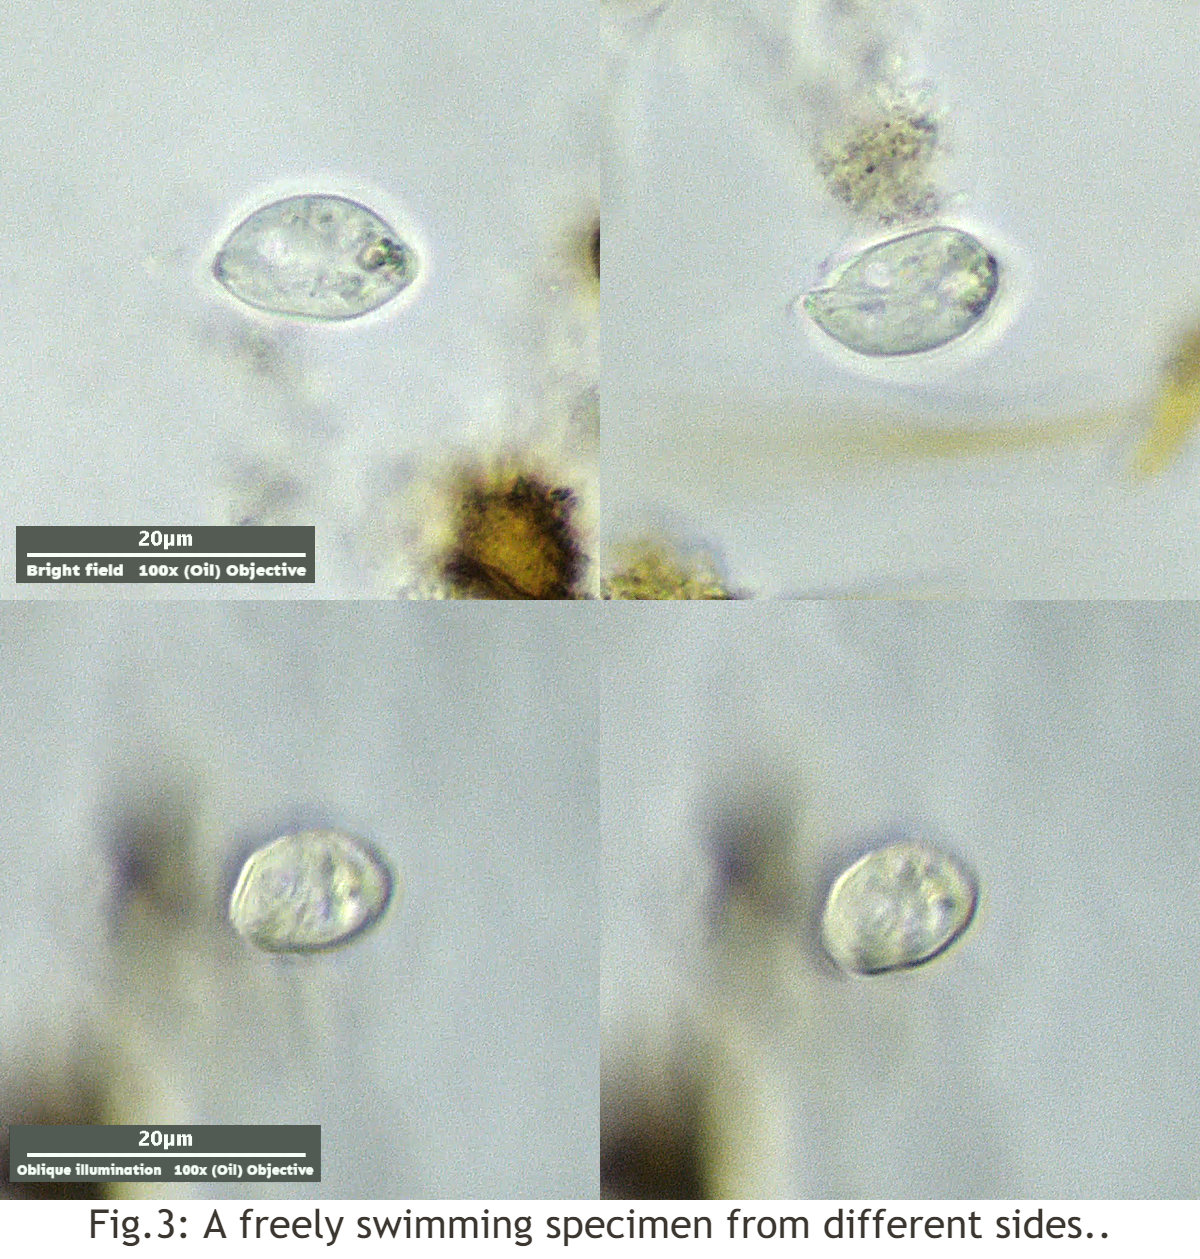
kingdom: Protozoa
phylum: Euglenozoa
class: Euglenoidea
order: Ploeotiida
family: Ploeotiidae
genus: Ploeotia
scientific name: Ploeotia
